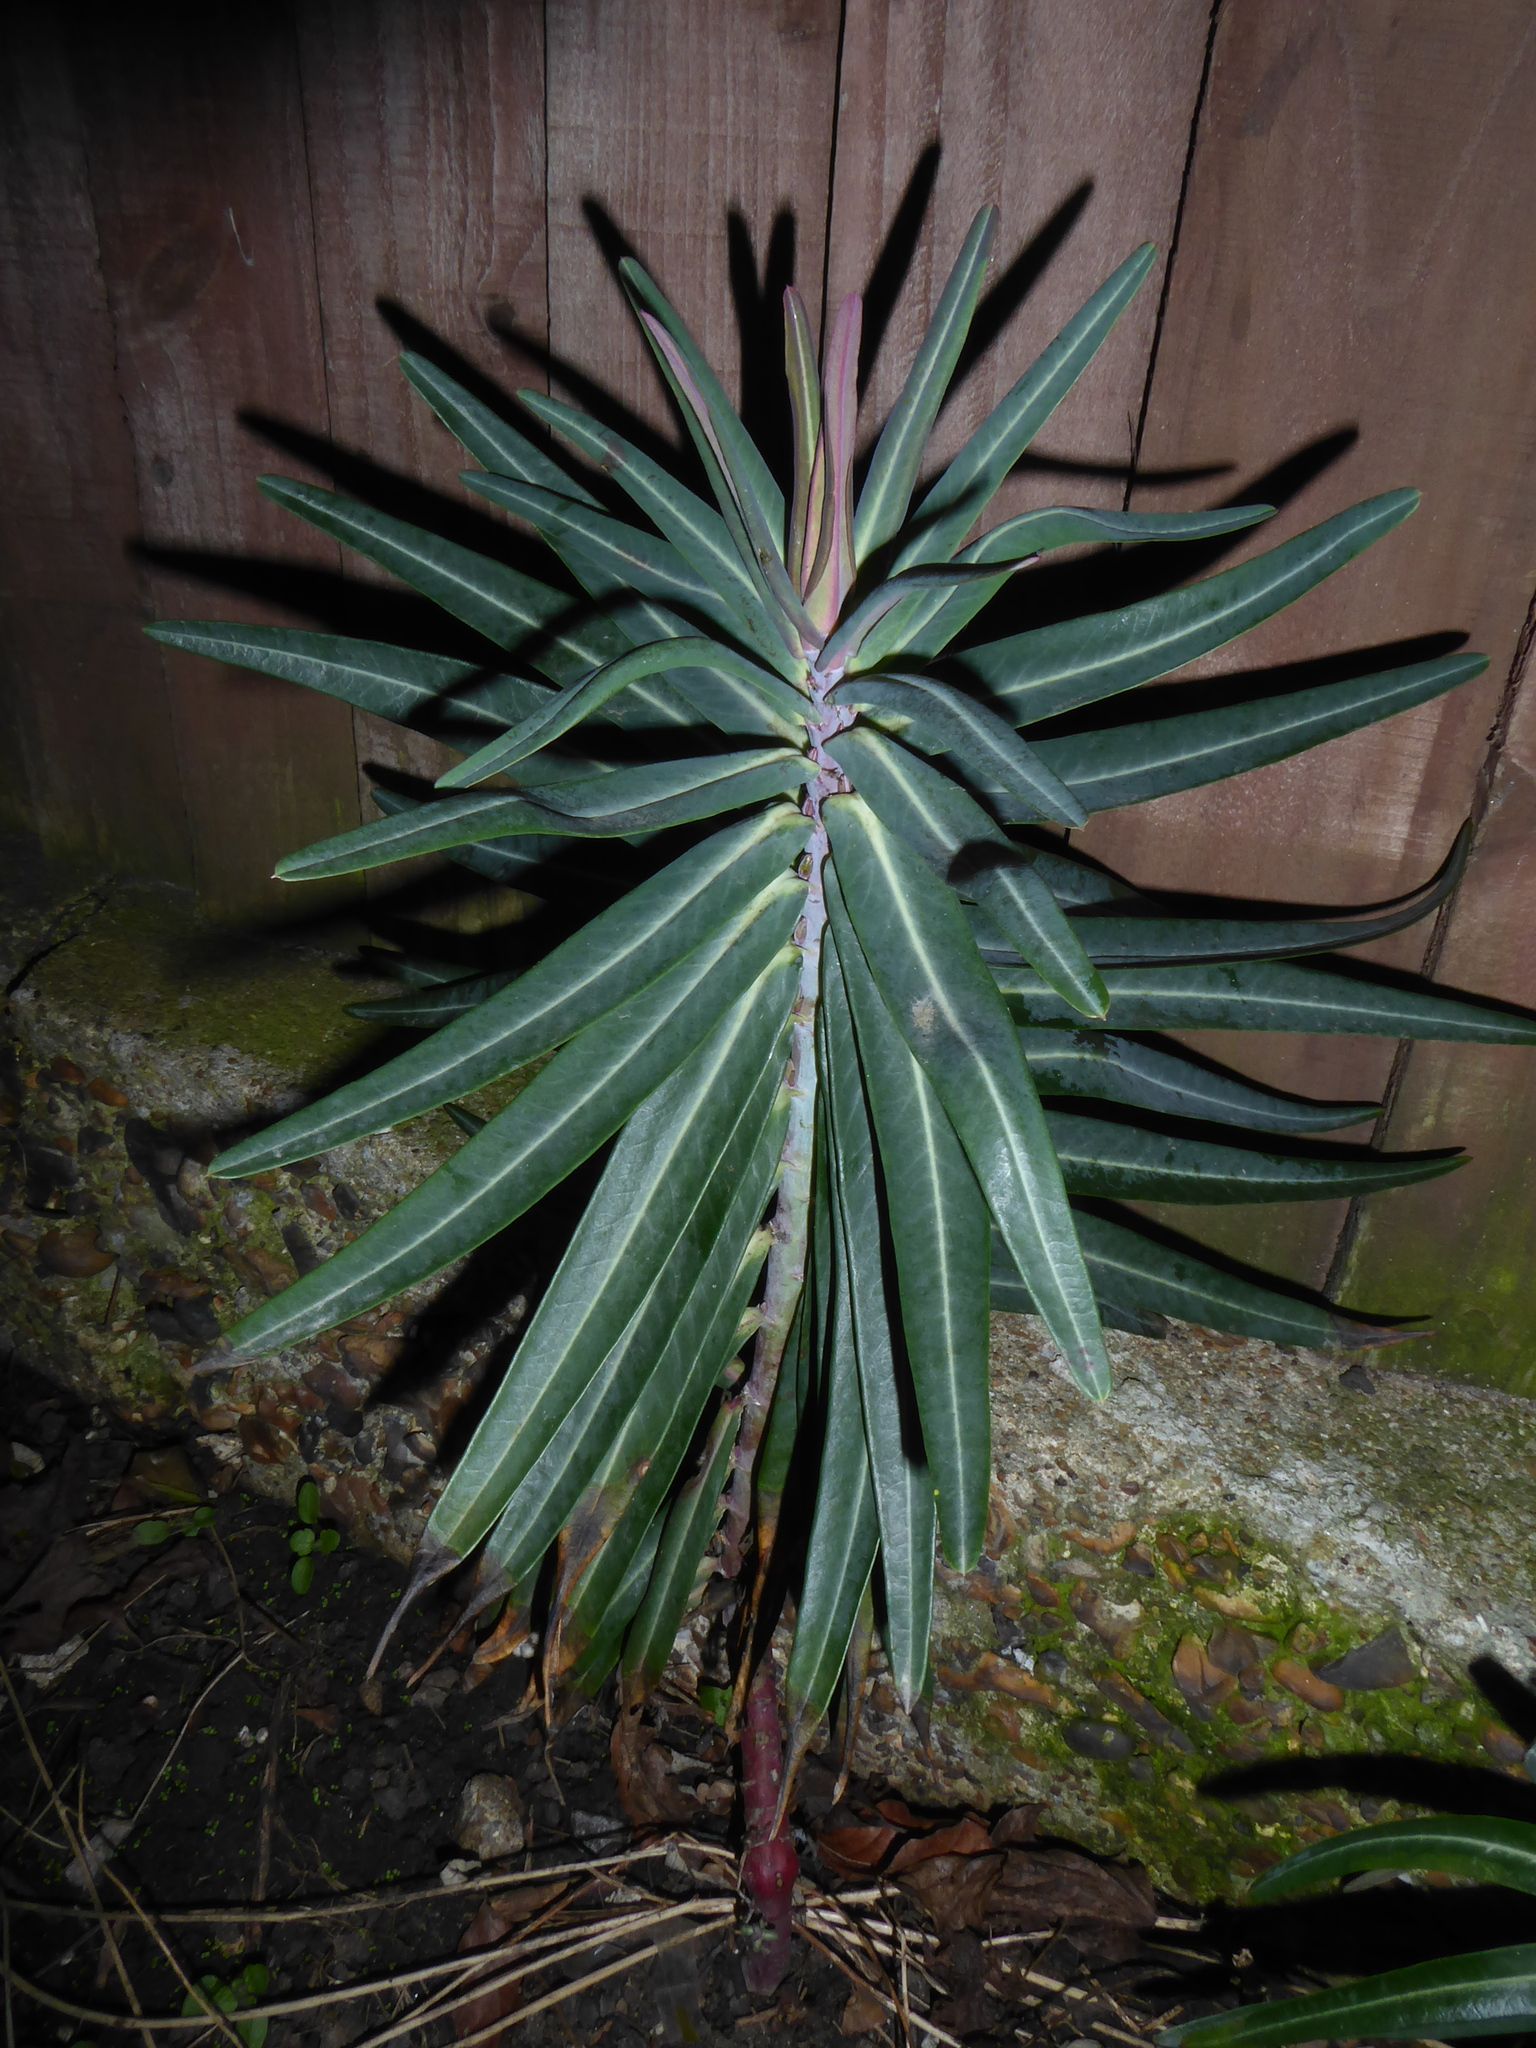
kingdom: Plantae
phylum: Tracheophyta
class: Magnoliopsida
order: Malpighiales
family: Euphorbiaceae
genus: Euphorbia
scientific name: Euphorbia lathyris
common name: Caper spurge
